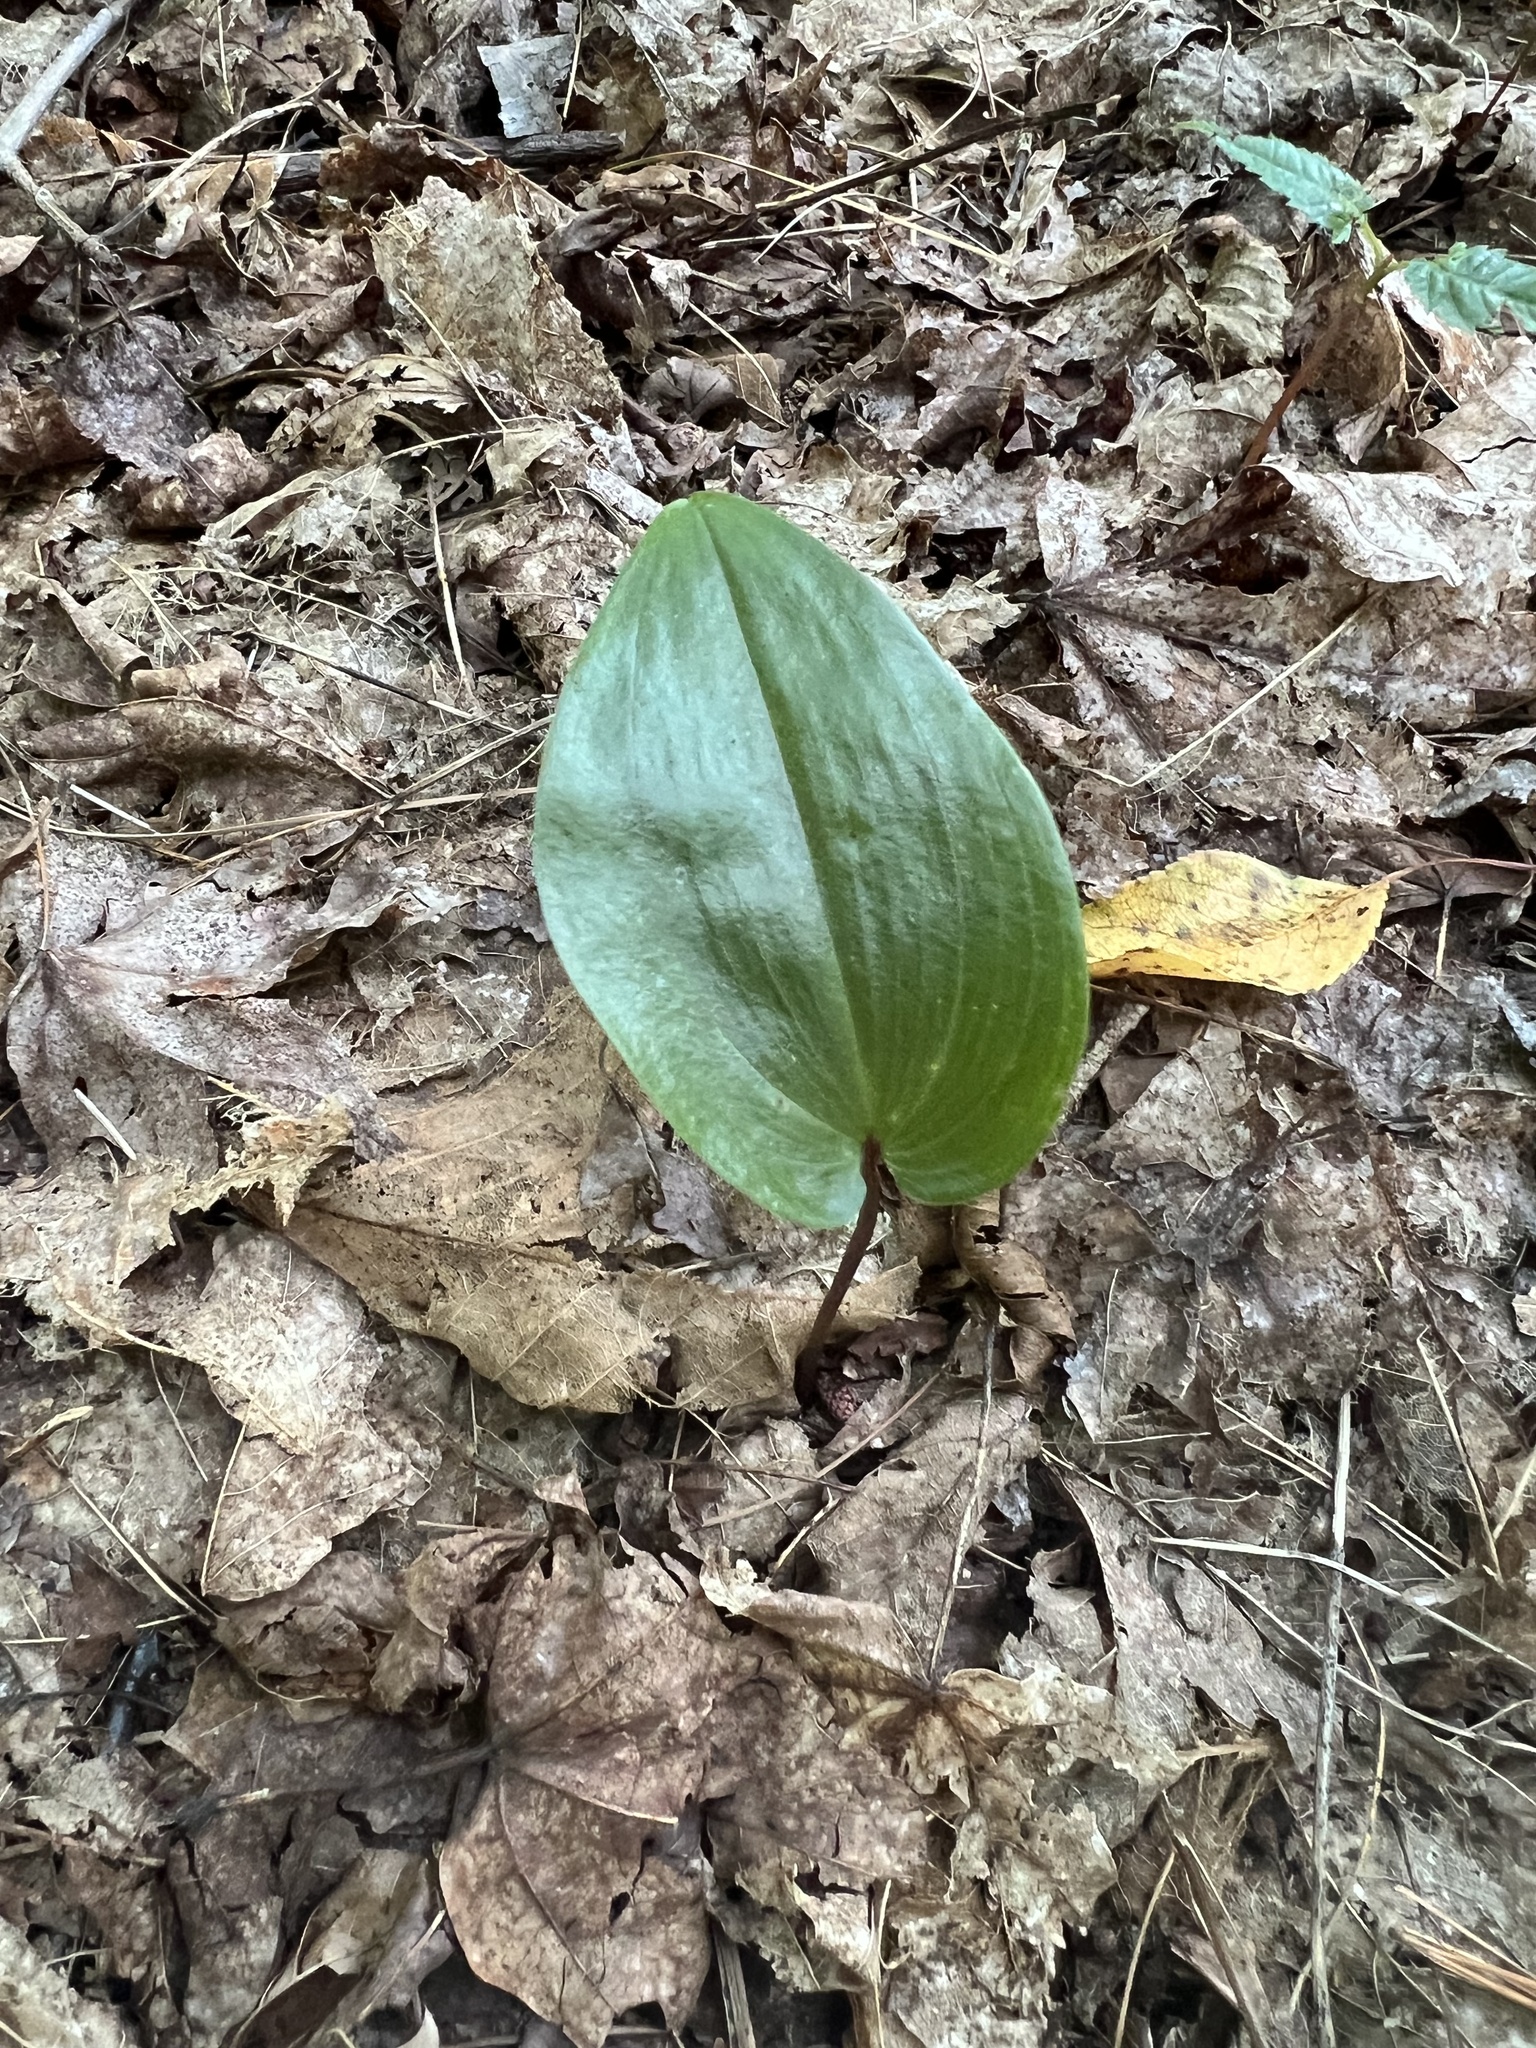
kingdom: Plantae
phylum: Tracheophyta
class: Liliopsida
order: Asparagales
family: Asparagaceae
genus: Maianthemum
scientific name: Maianthemum canadense
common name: False lily-of-the-valley
